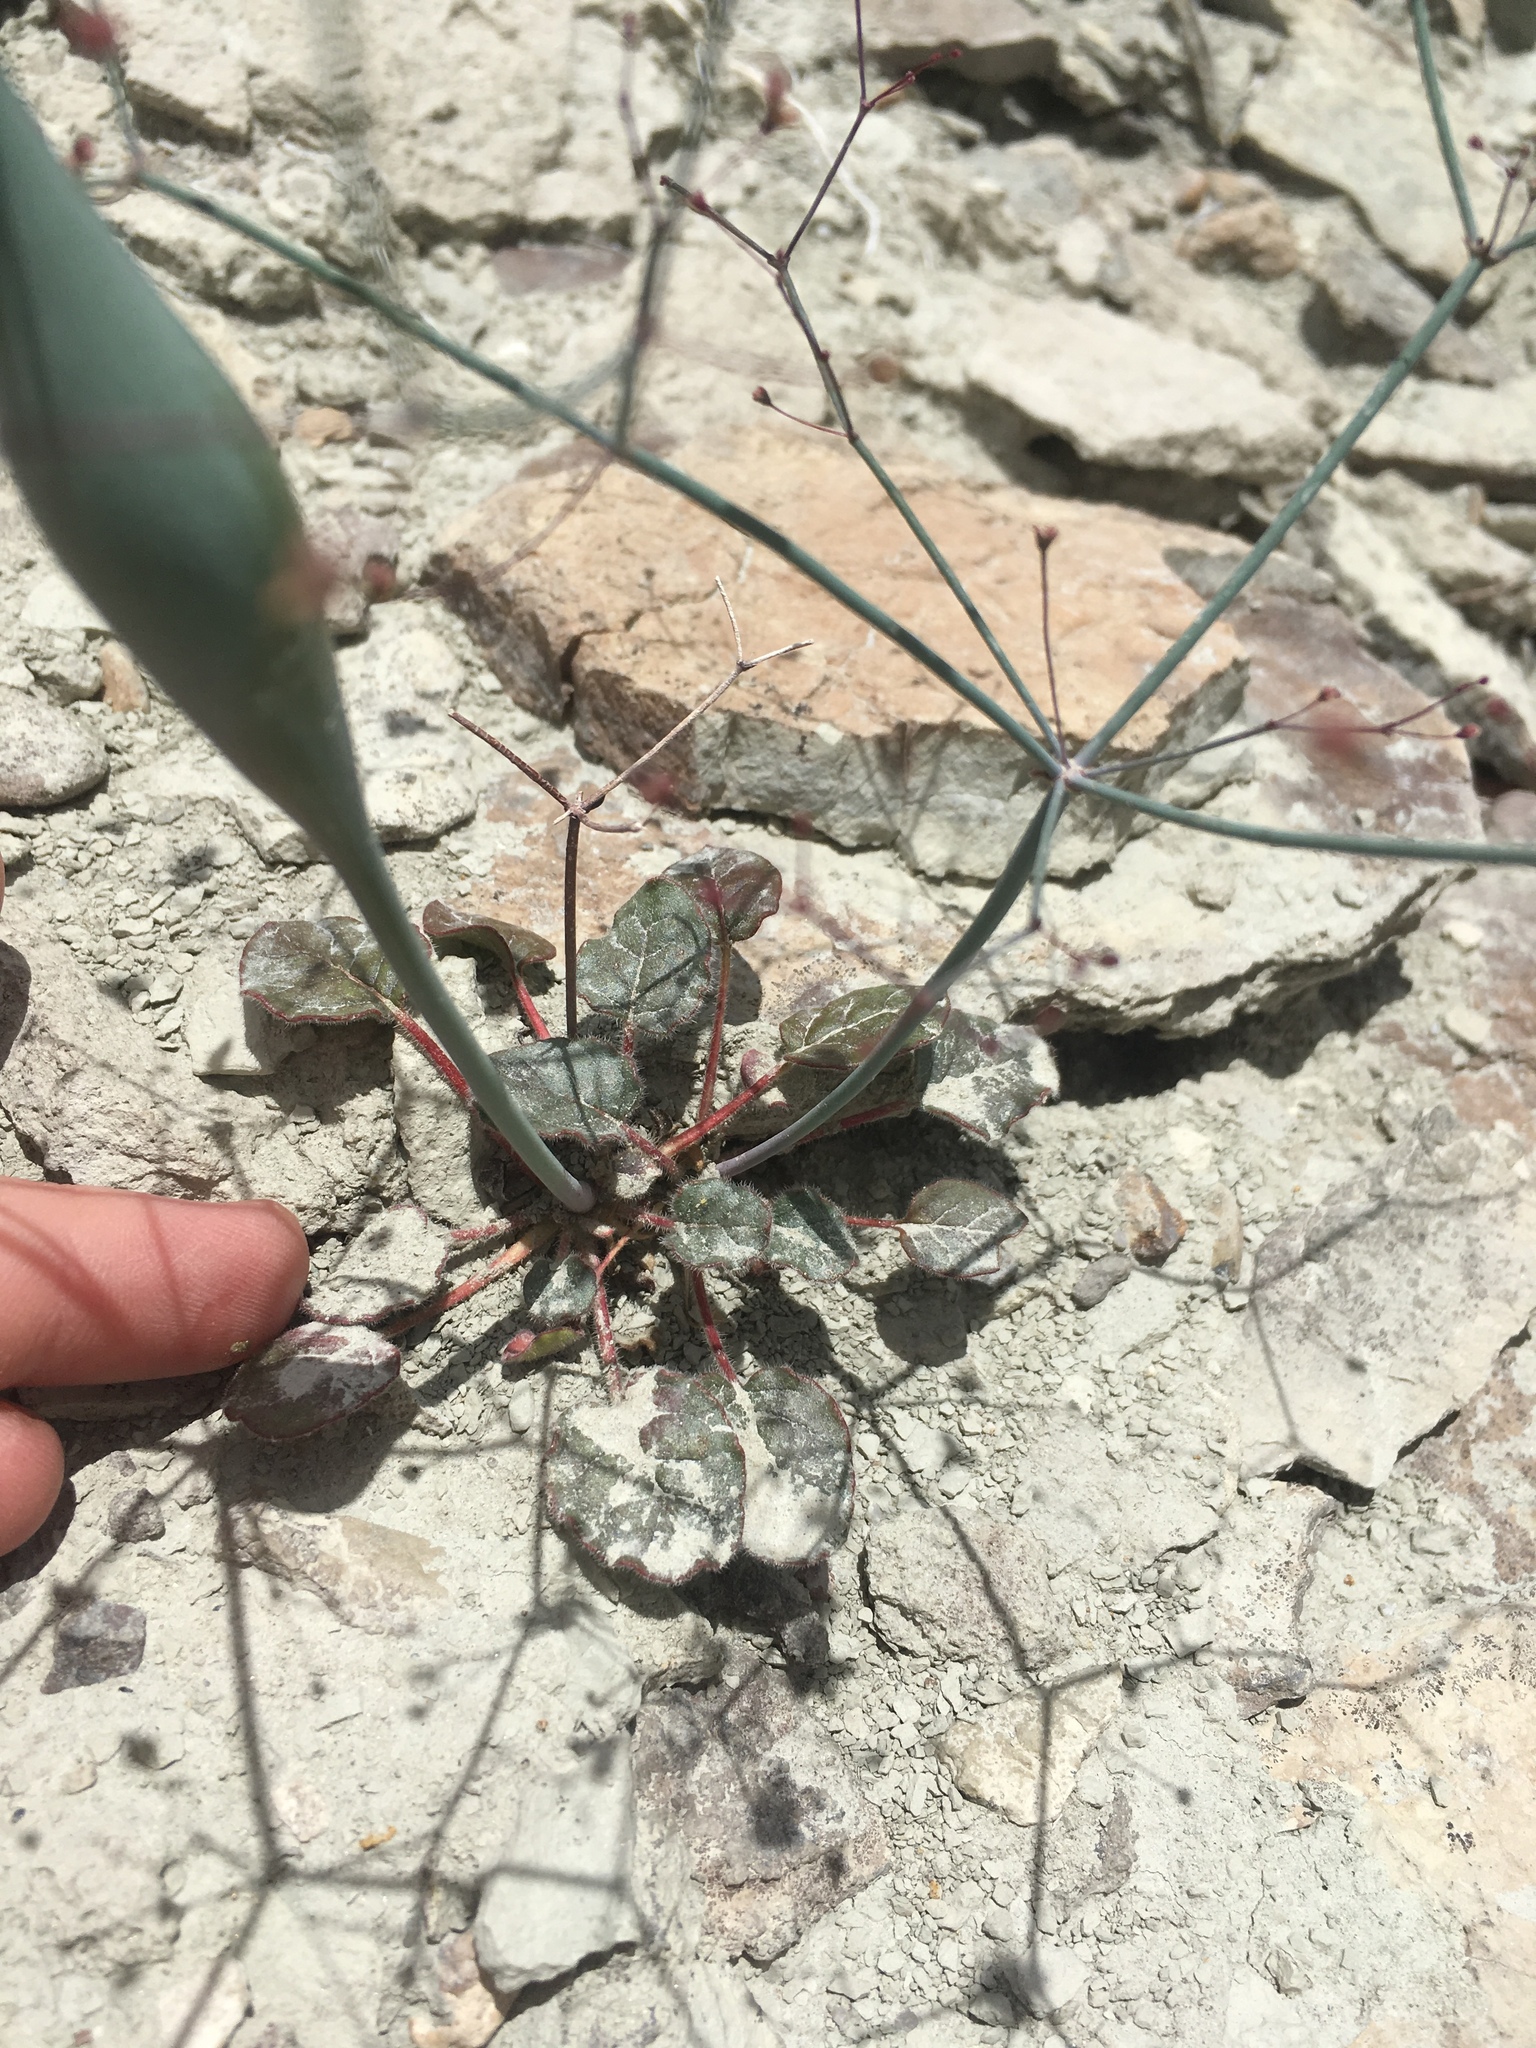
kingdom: Plantae
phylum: Tracheophyta
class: Magnoliopsida
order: Caryophyllales
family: Polygonaceae
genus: Eriogonum
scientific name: Eriogonum inflatum
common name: Desert trumpet
